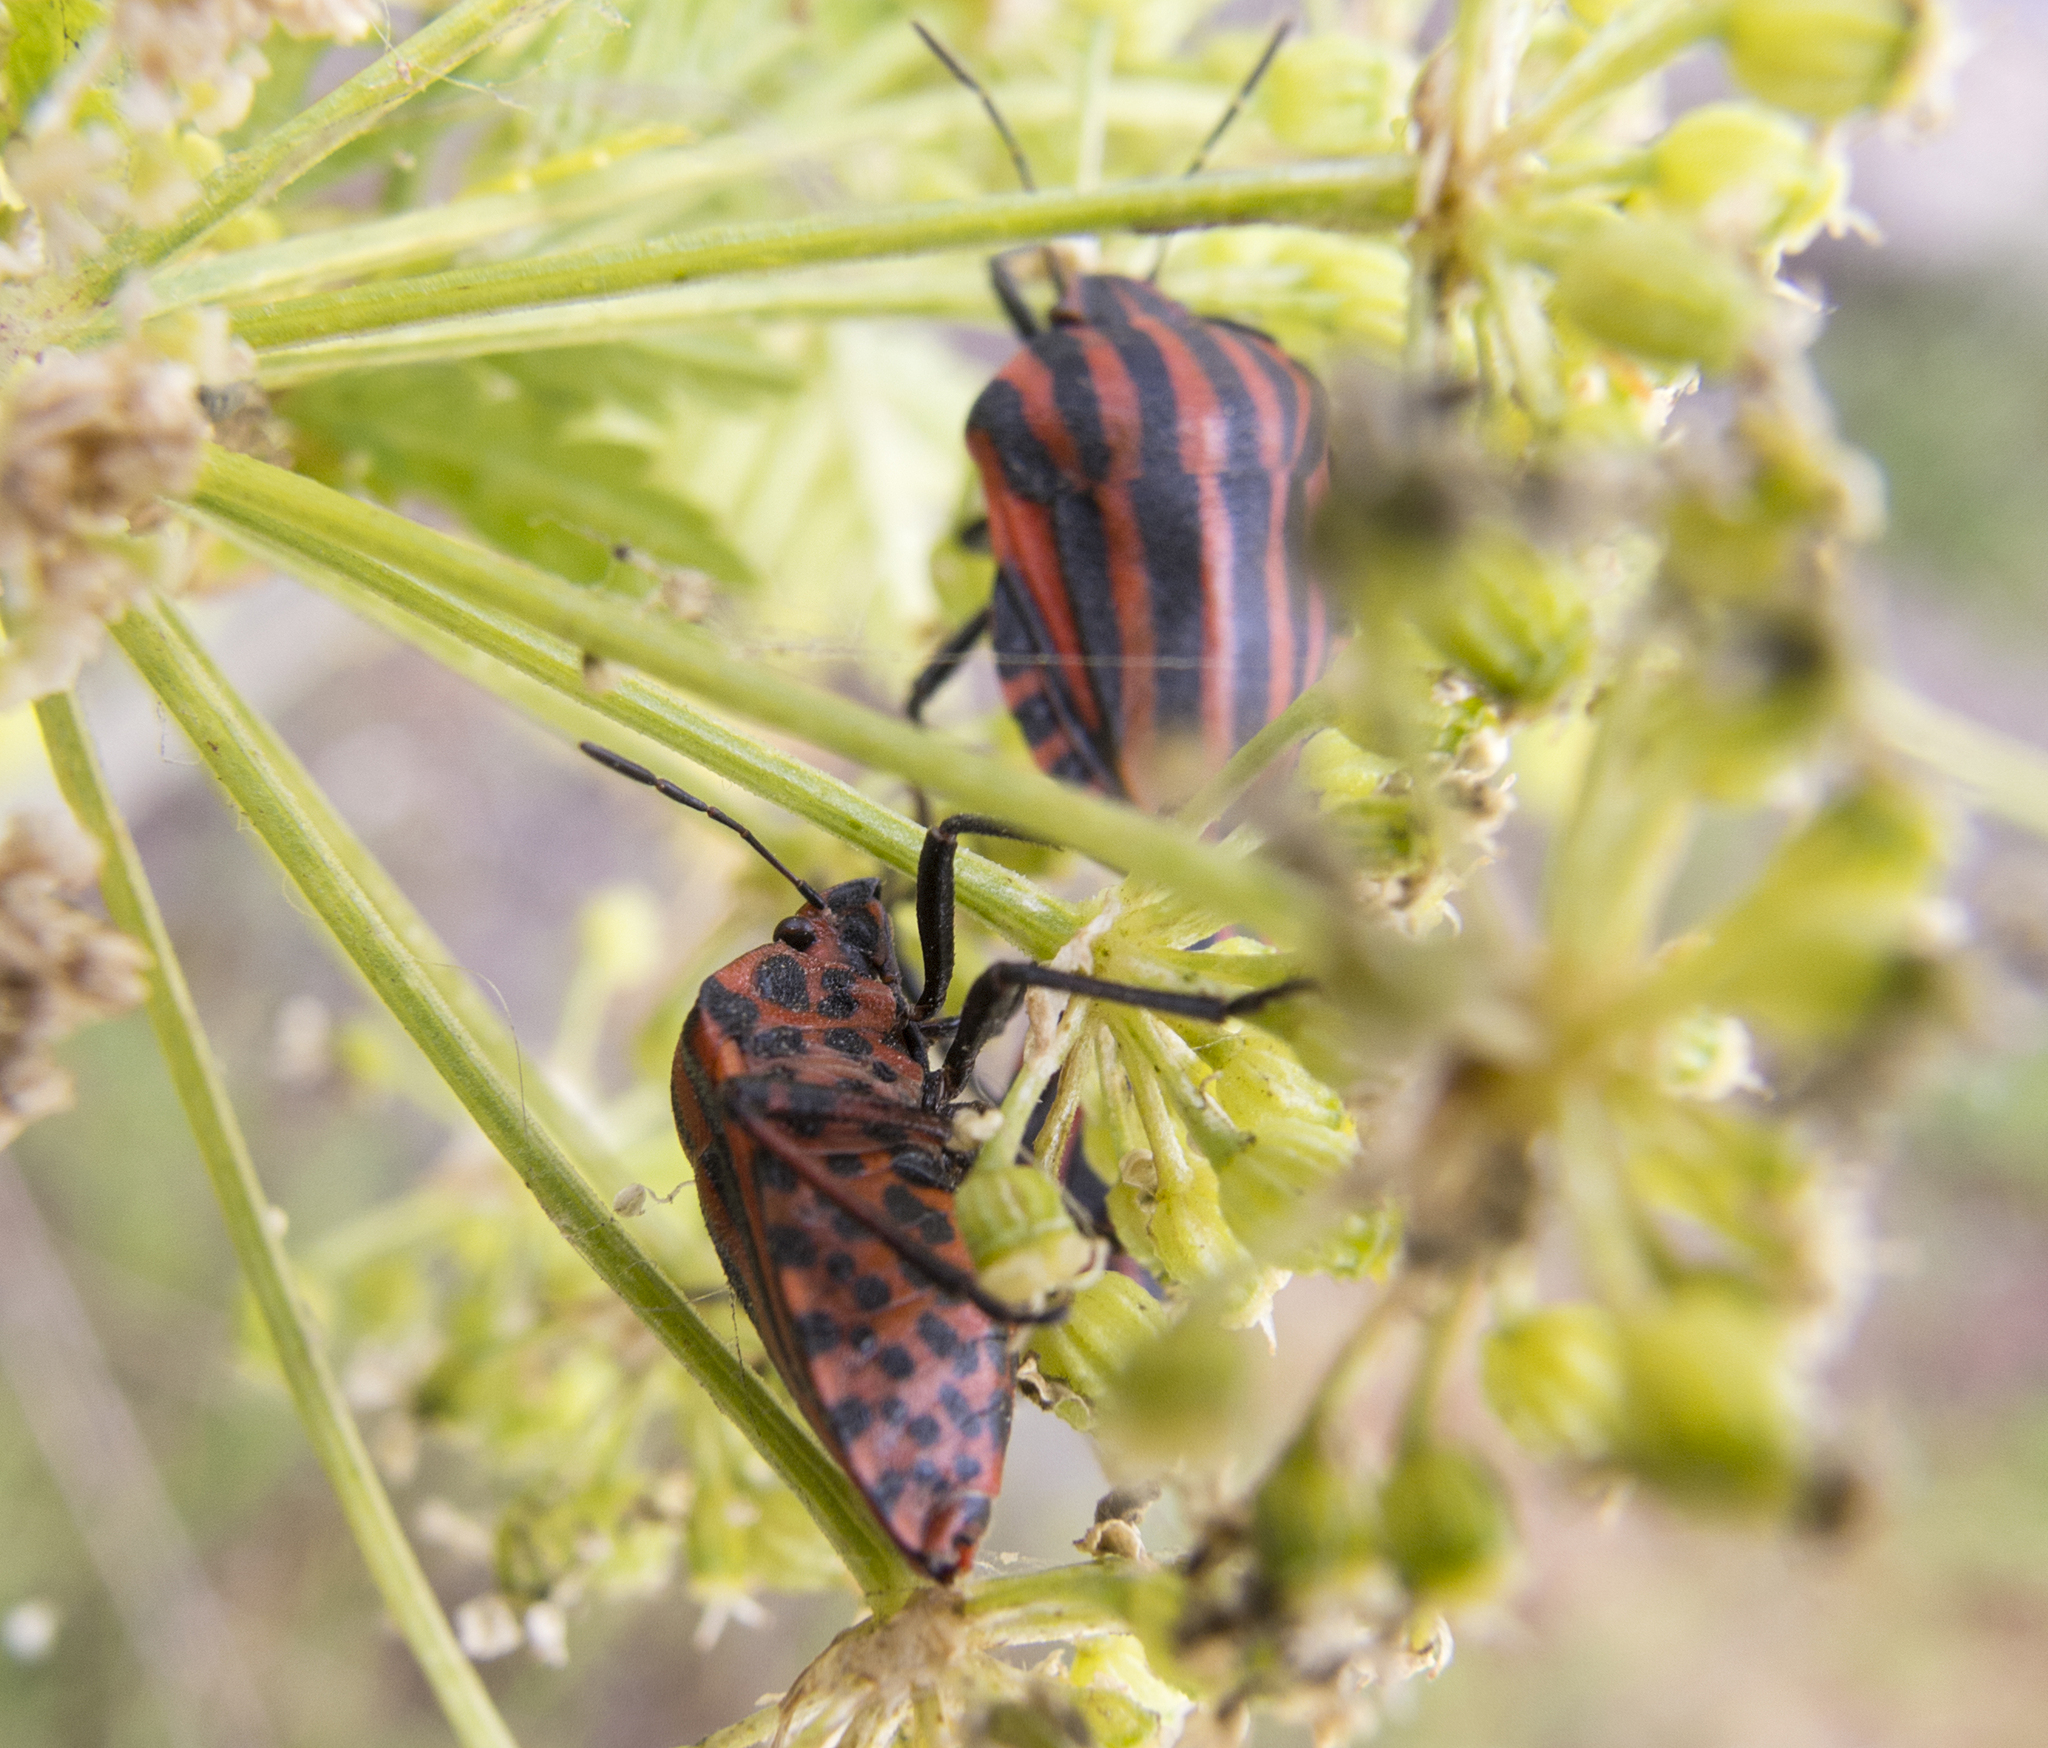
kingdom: Animalia
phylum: Arthropoda
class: Insecta
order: Hemiptera
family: Pentatomidae
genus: Graphosoma
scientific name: Graphosoma italicum
